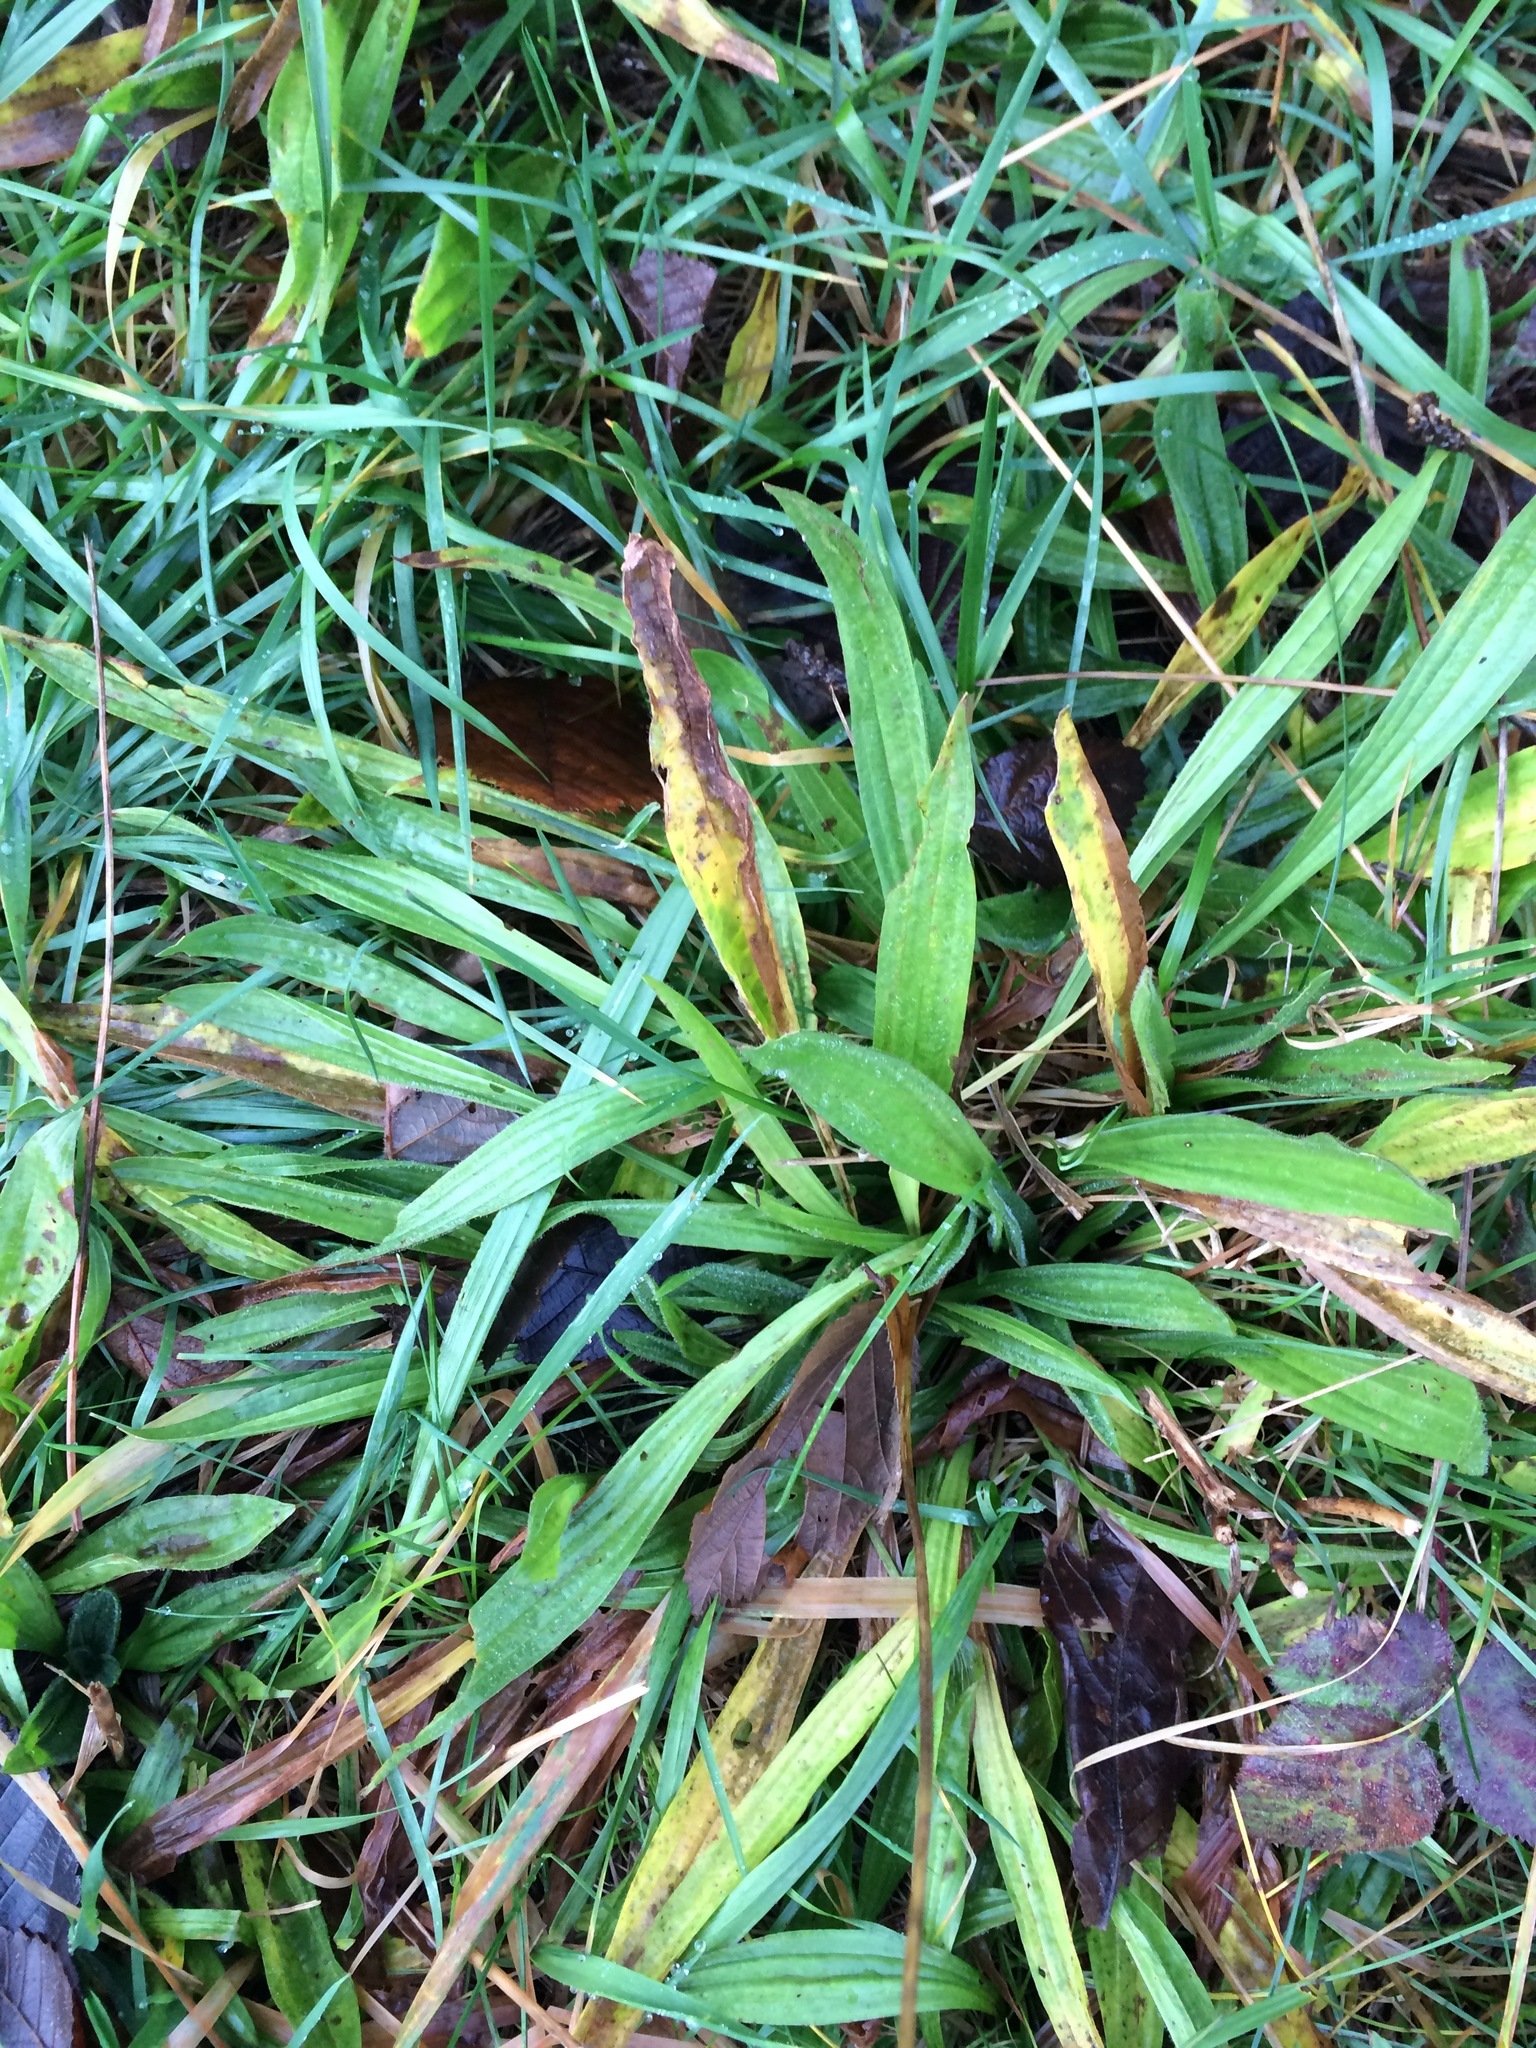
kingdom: Plantae
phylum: Tracheophyta
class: Magnoliopsida
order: Lamiales
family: Plantaginaceae
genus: Plantago
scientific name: Plantago lanceolata
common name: Ribwort plantain
